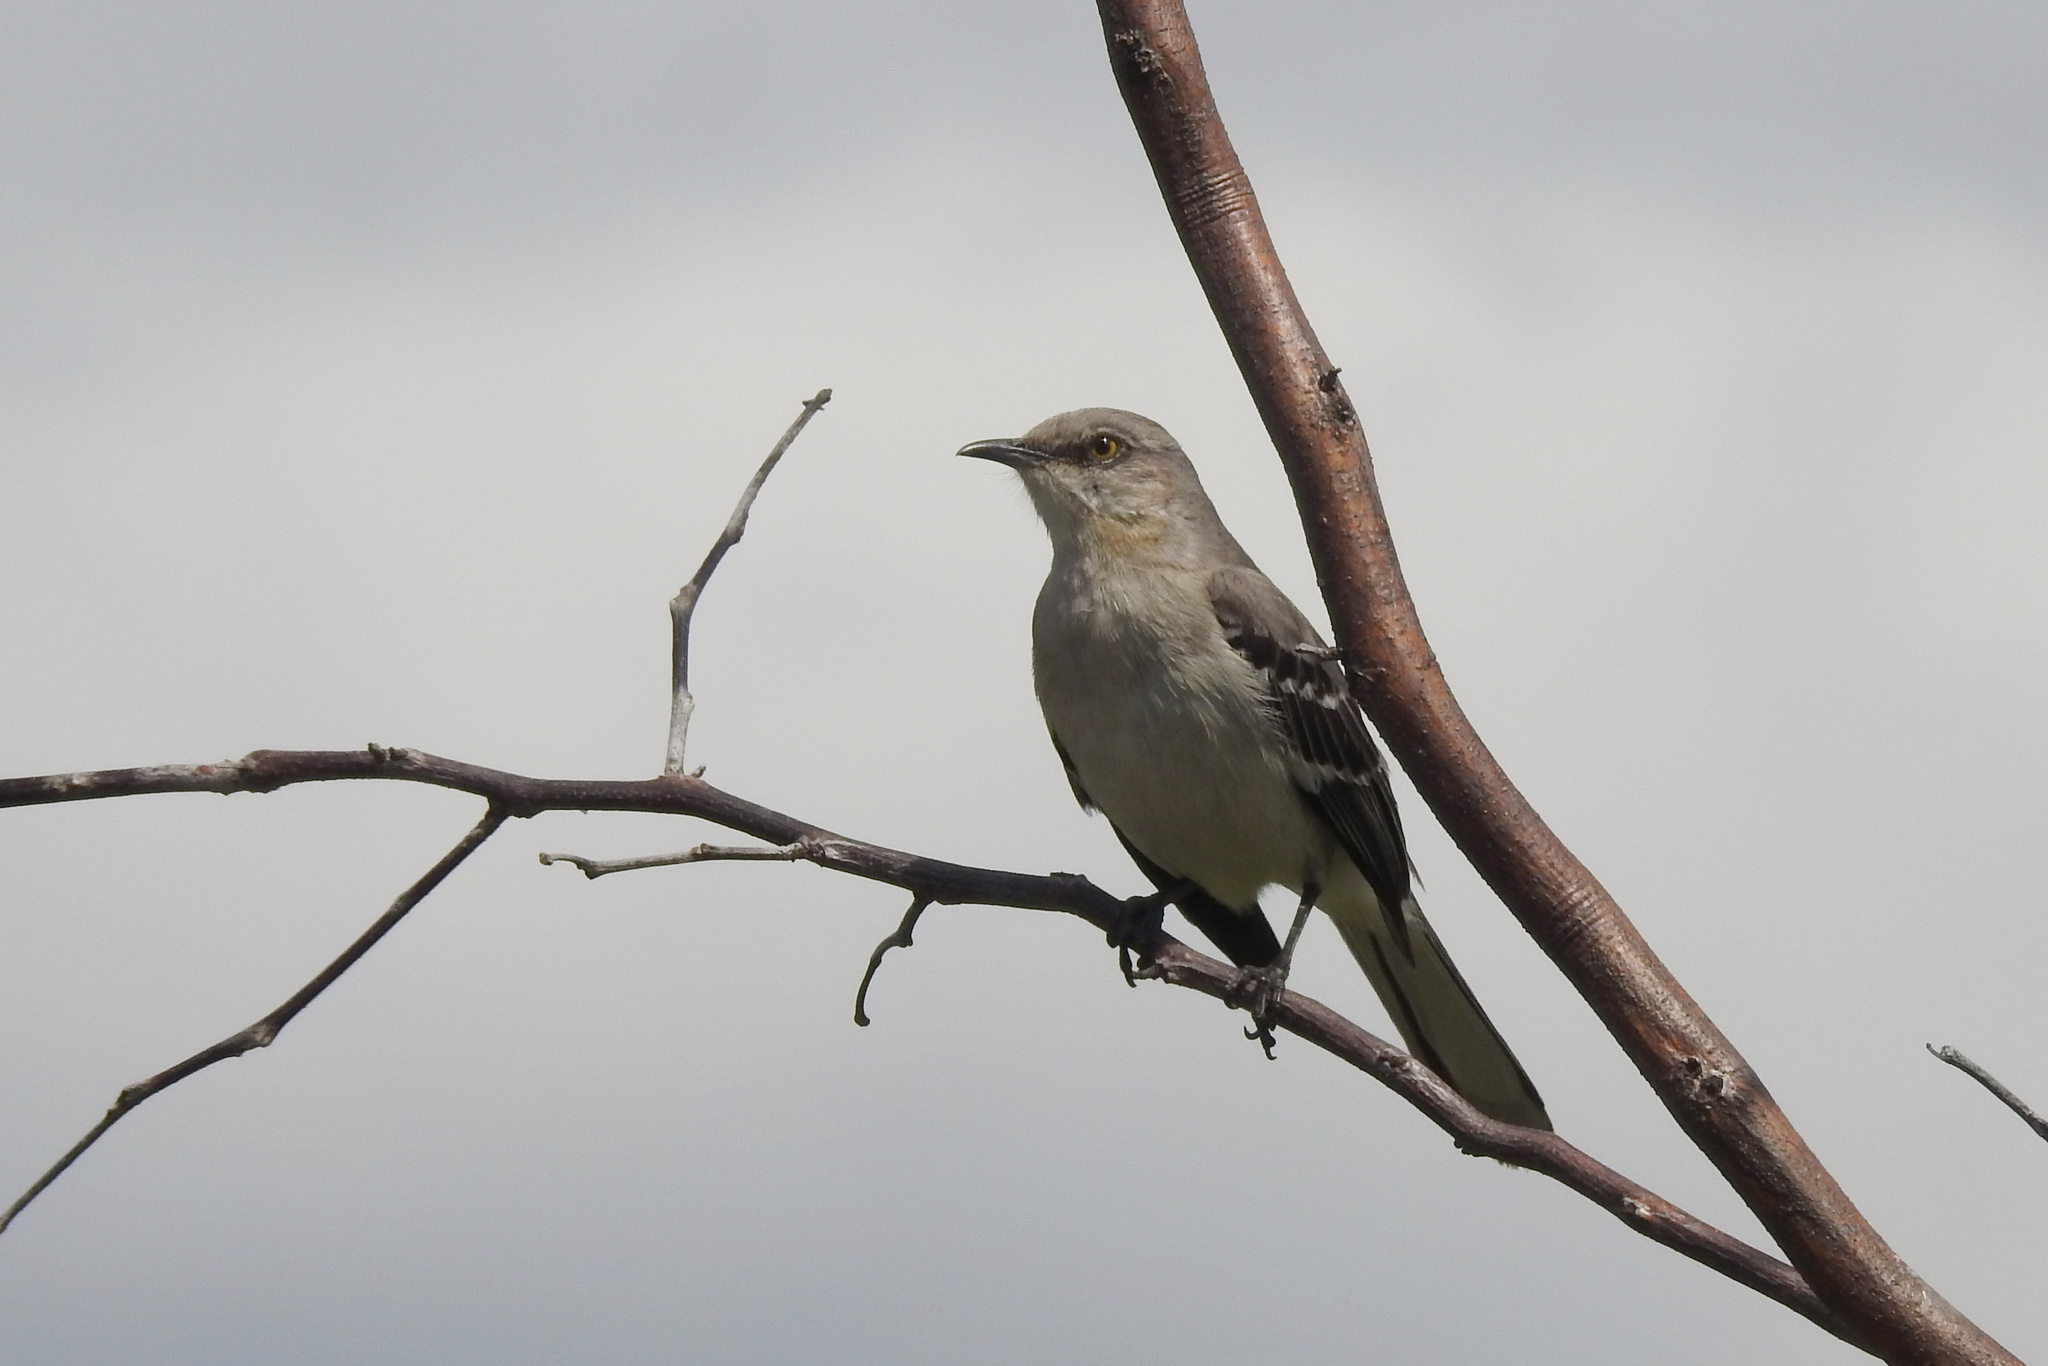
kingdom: Animalia
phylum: Chordata
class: Aves
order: Passeriformes
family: Mimidae
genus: Mimus
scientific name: Mimus polyglottos
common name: Northern mockingbird
